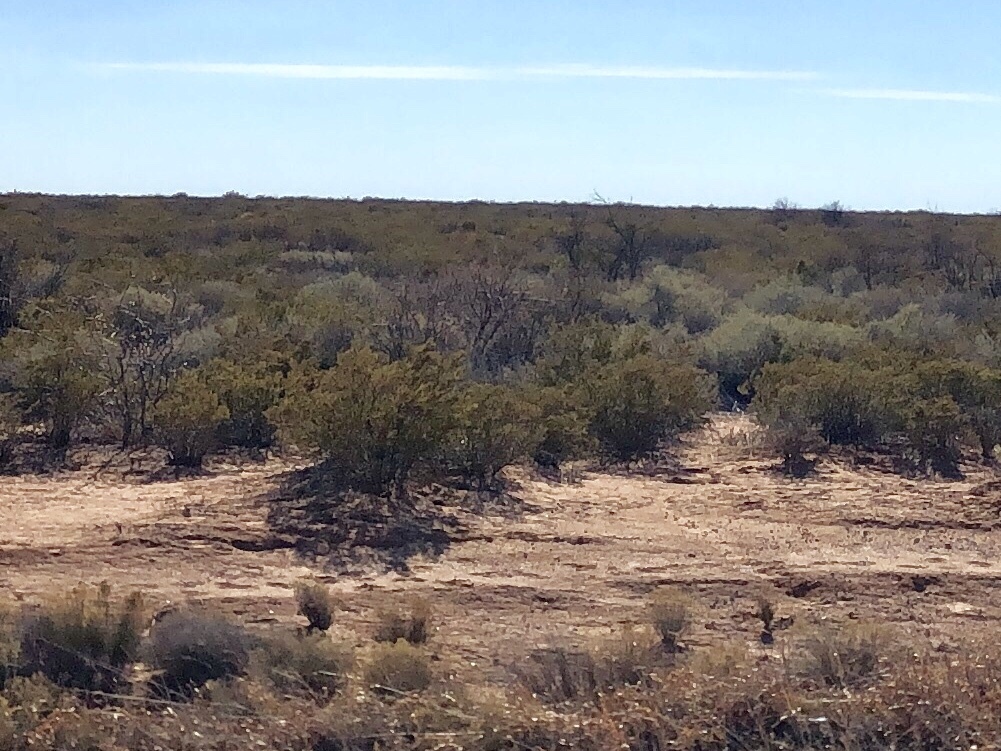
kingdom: Plantae
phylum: Tracheophyta
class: Magnoliopsida
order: Zygophyllales
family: Zygophyllaceae
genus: Larrea
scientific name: Larrea tridentata
